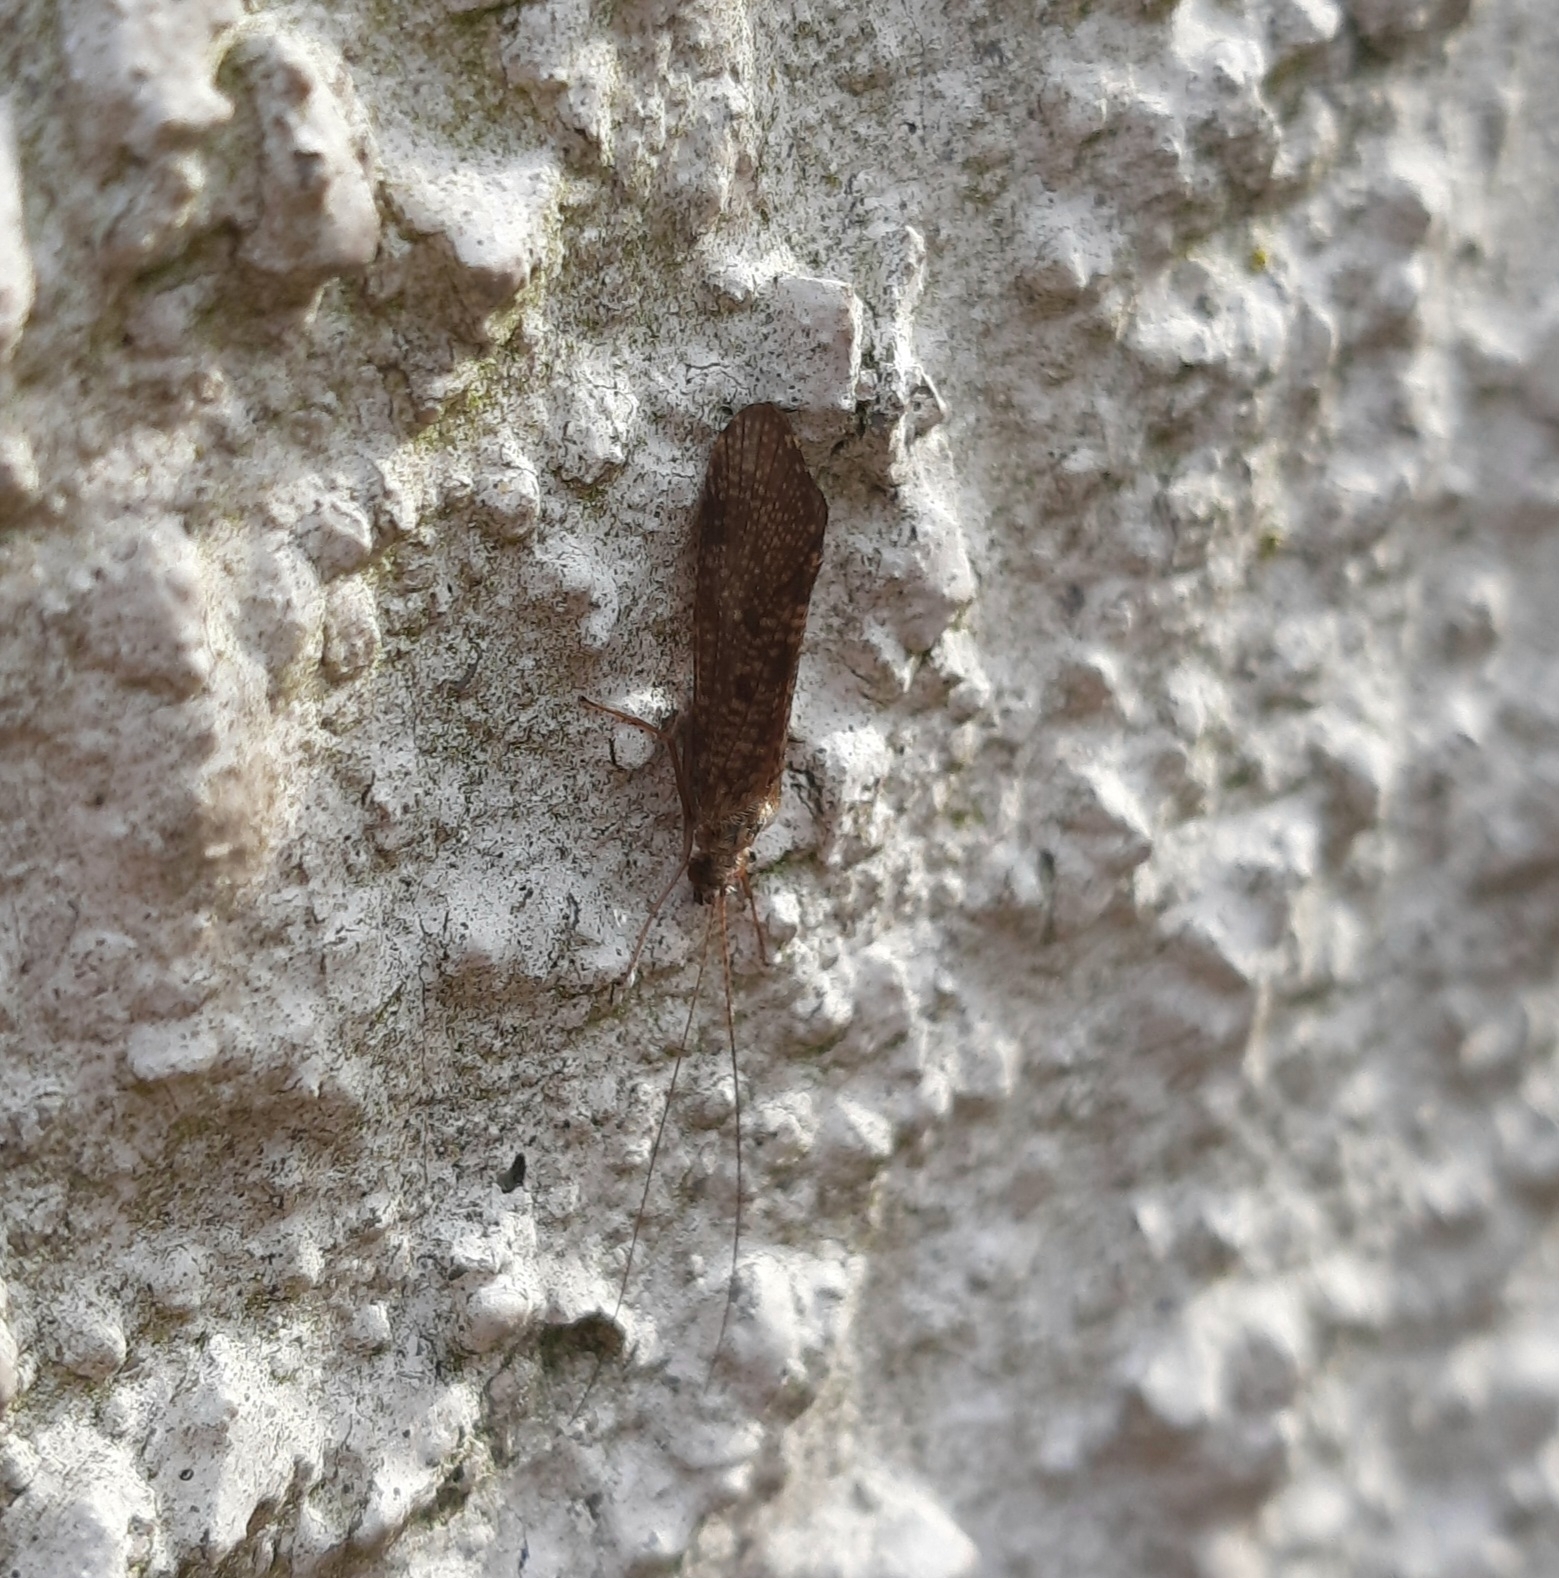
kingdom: Animalia
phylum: Arthropoda
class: Insecta
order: Trichoptera
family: Hydropsychidae
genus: Hydropsyche
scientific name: Hydropsyche
